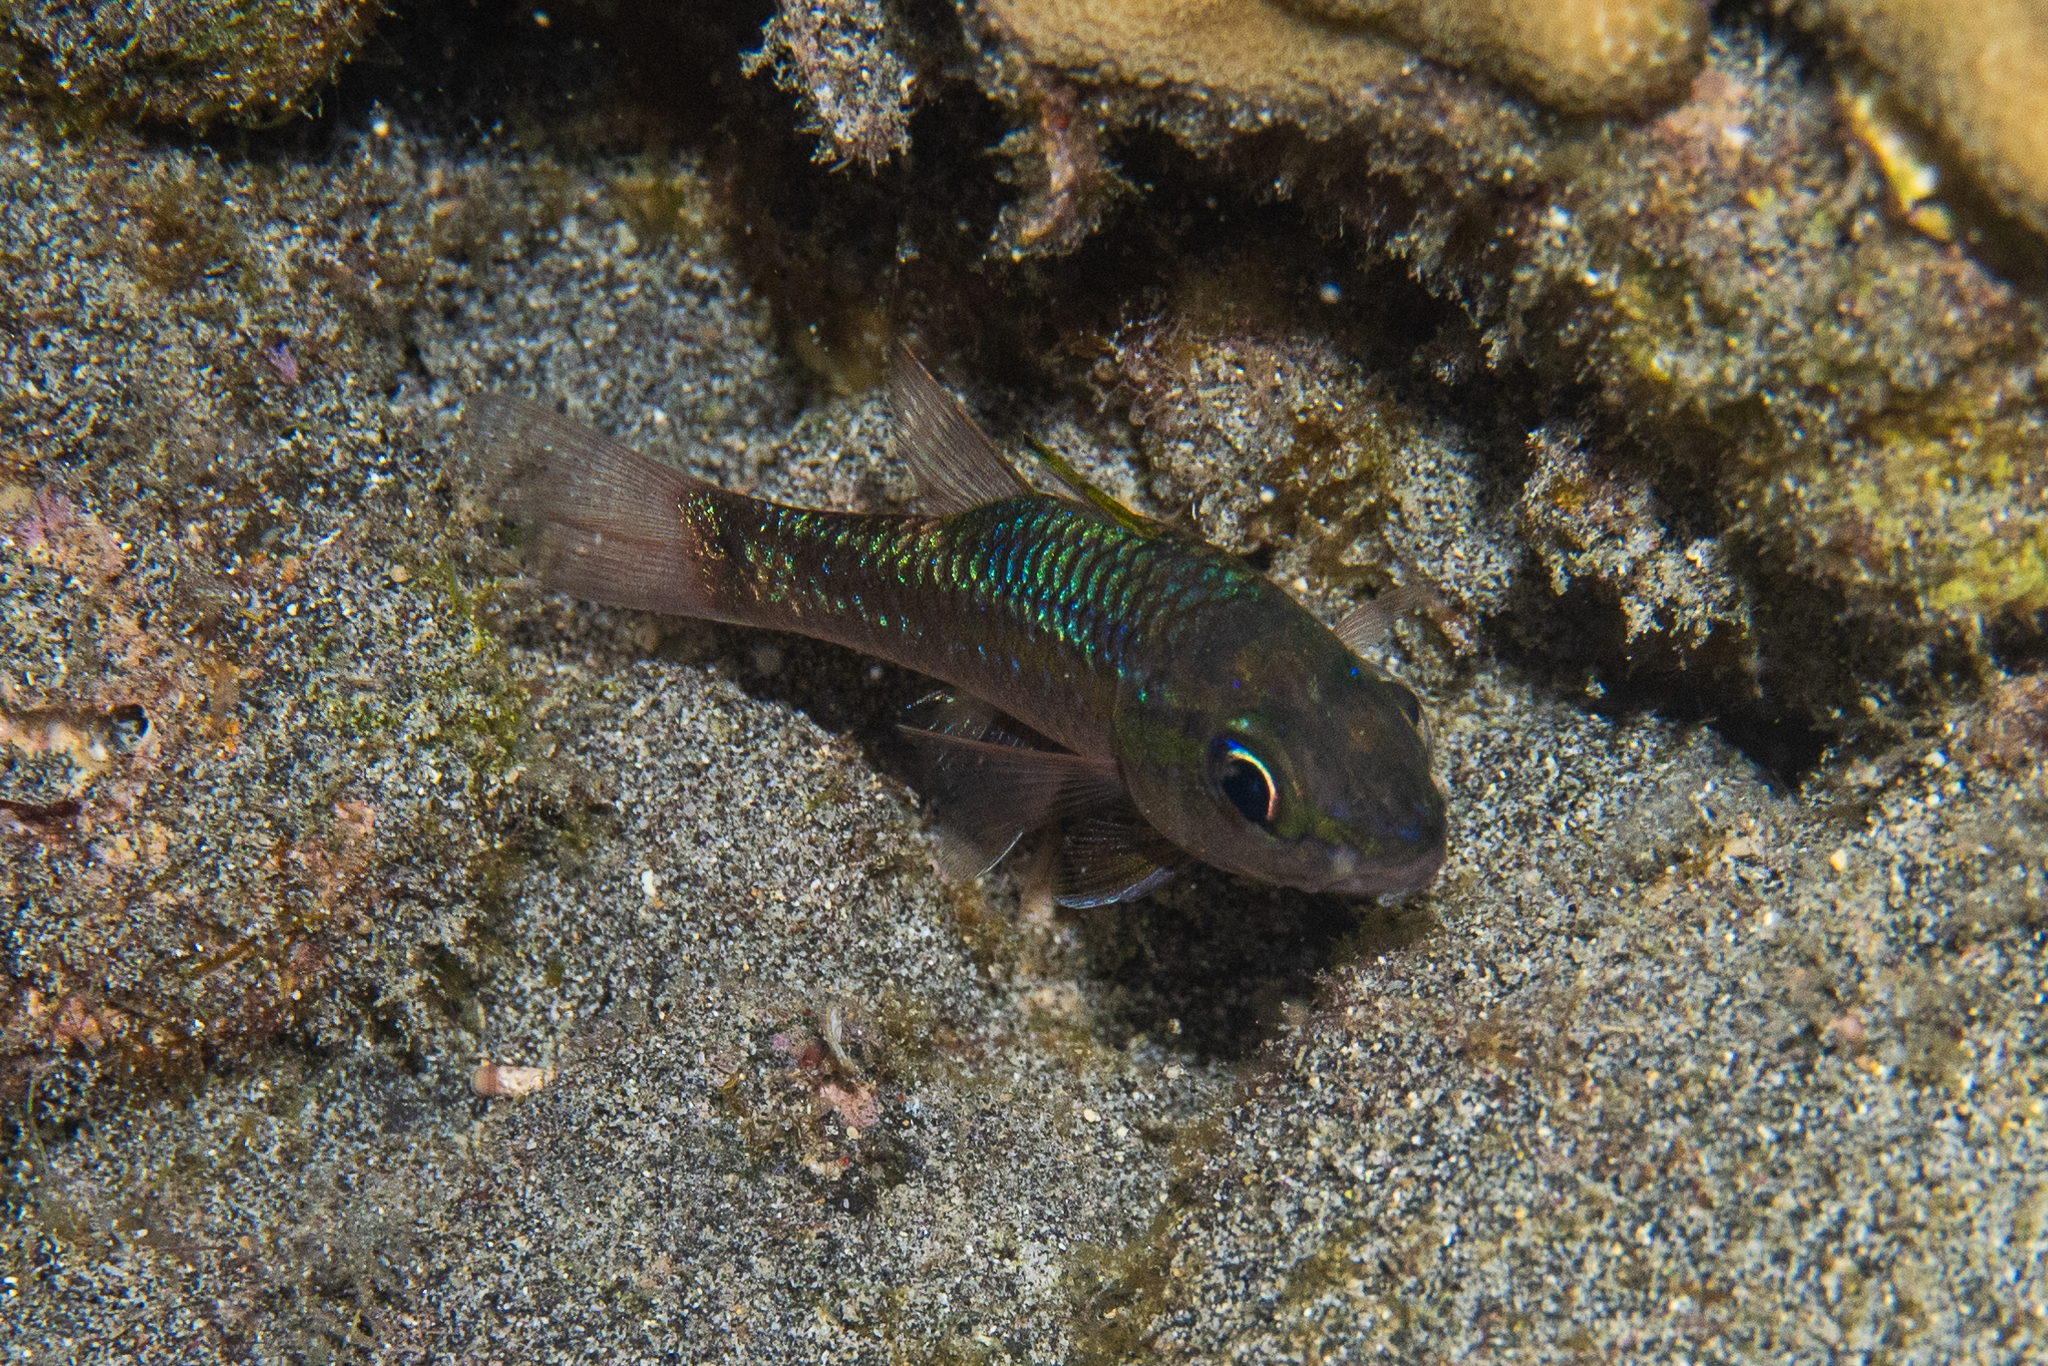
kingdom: Animalia
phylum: Chordata
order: Perciformes
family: Apogonidae
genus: Pristiapogon
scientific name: Pristiapogon kallopterus
